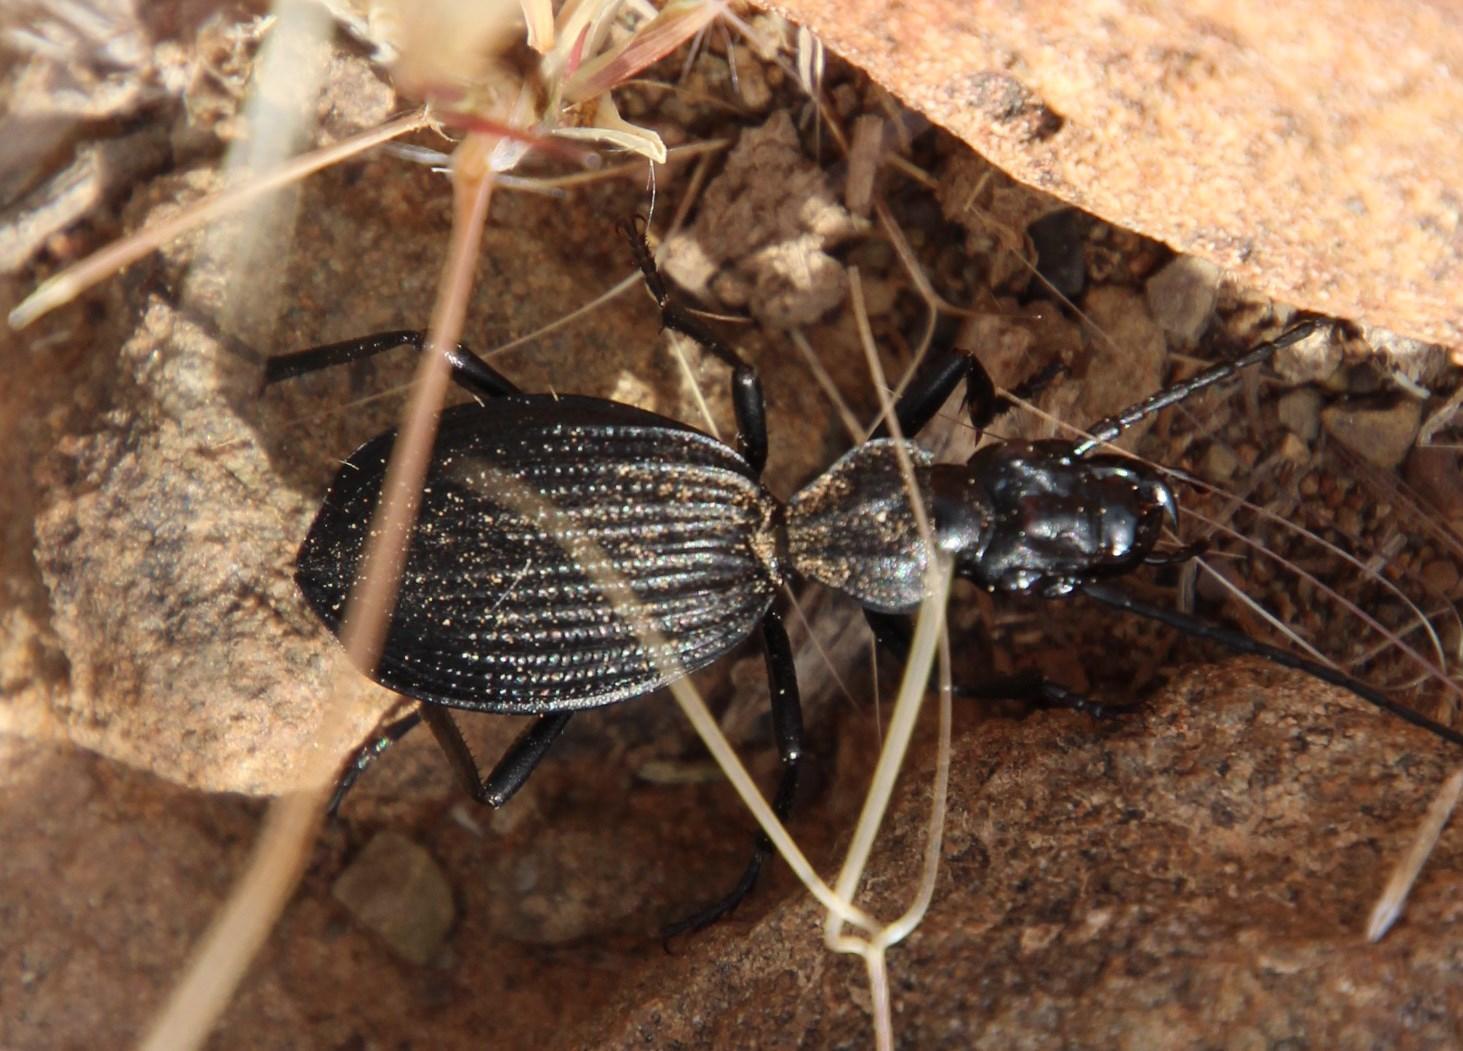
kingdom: Animalia
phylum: Arthropoda
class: Insecta
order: Coleoptera
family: Carabidae
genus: Gonogenia
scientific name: Gonogenia rugosopunctata
